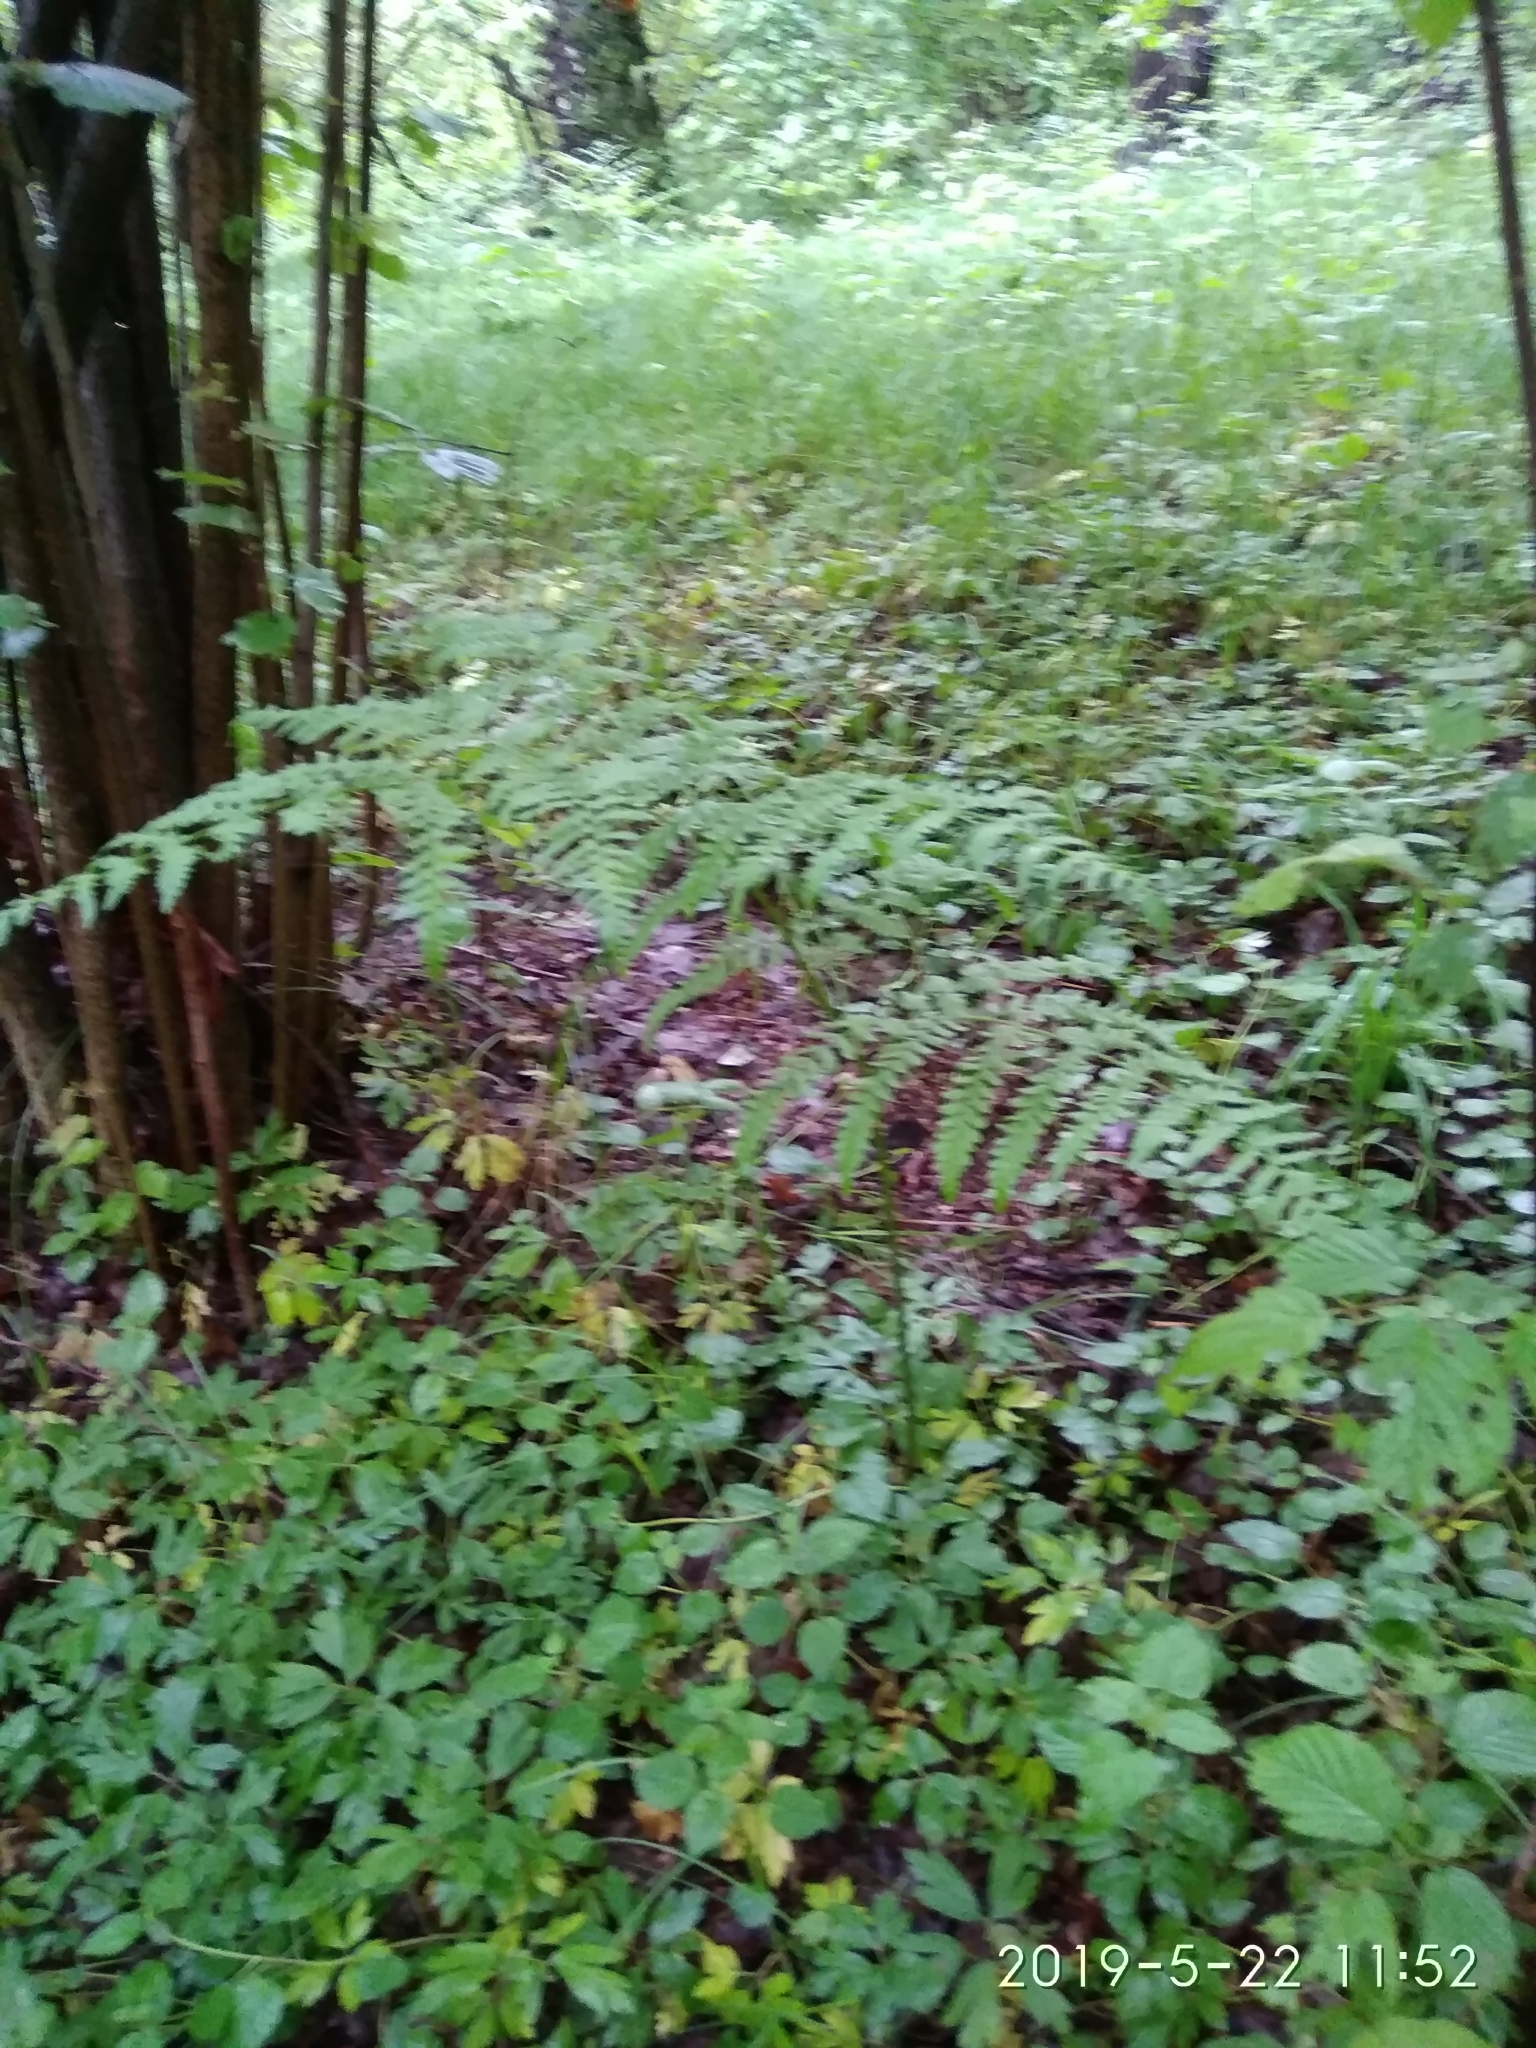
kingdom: Plantae
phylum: Tracheophyta
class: Polypodiopsida
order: Polypodiales
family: Dennstaedtiaceae
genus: Pteridium
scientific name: Pteridium aquilinum
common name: Bracken
